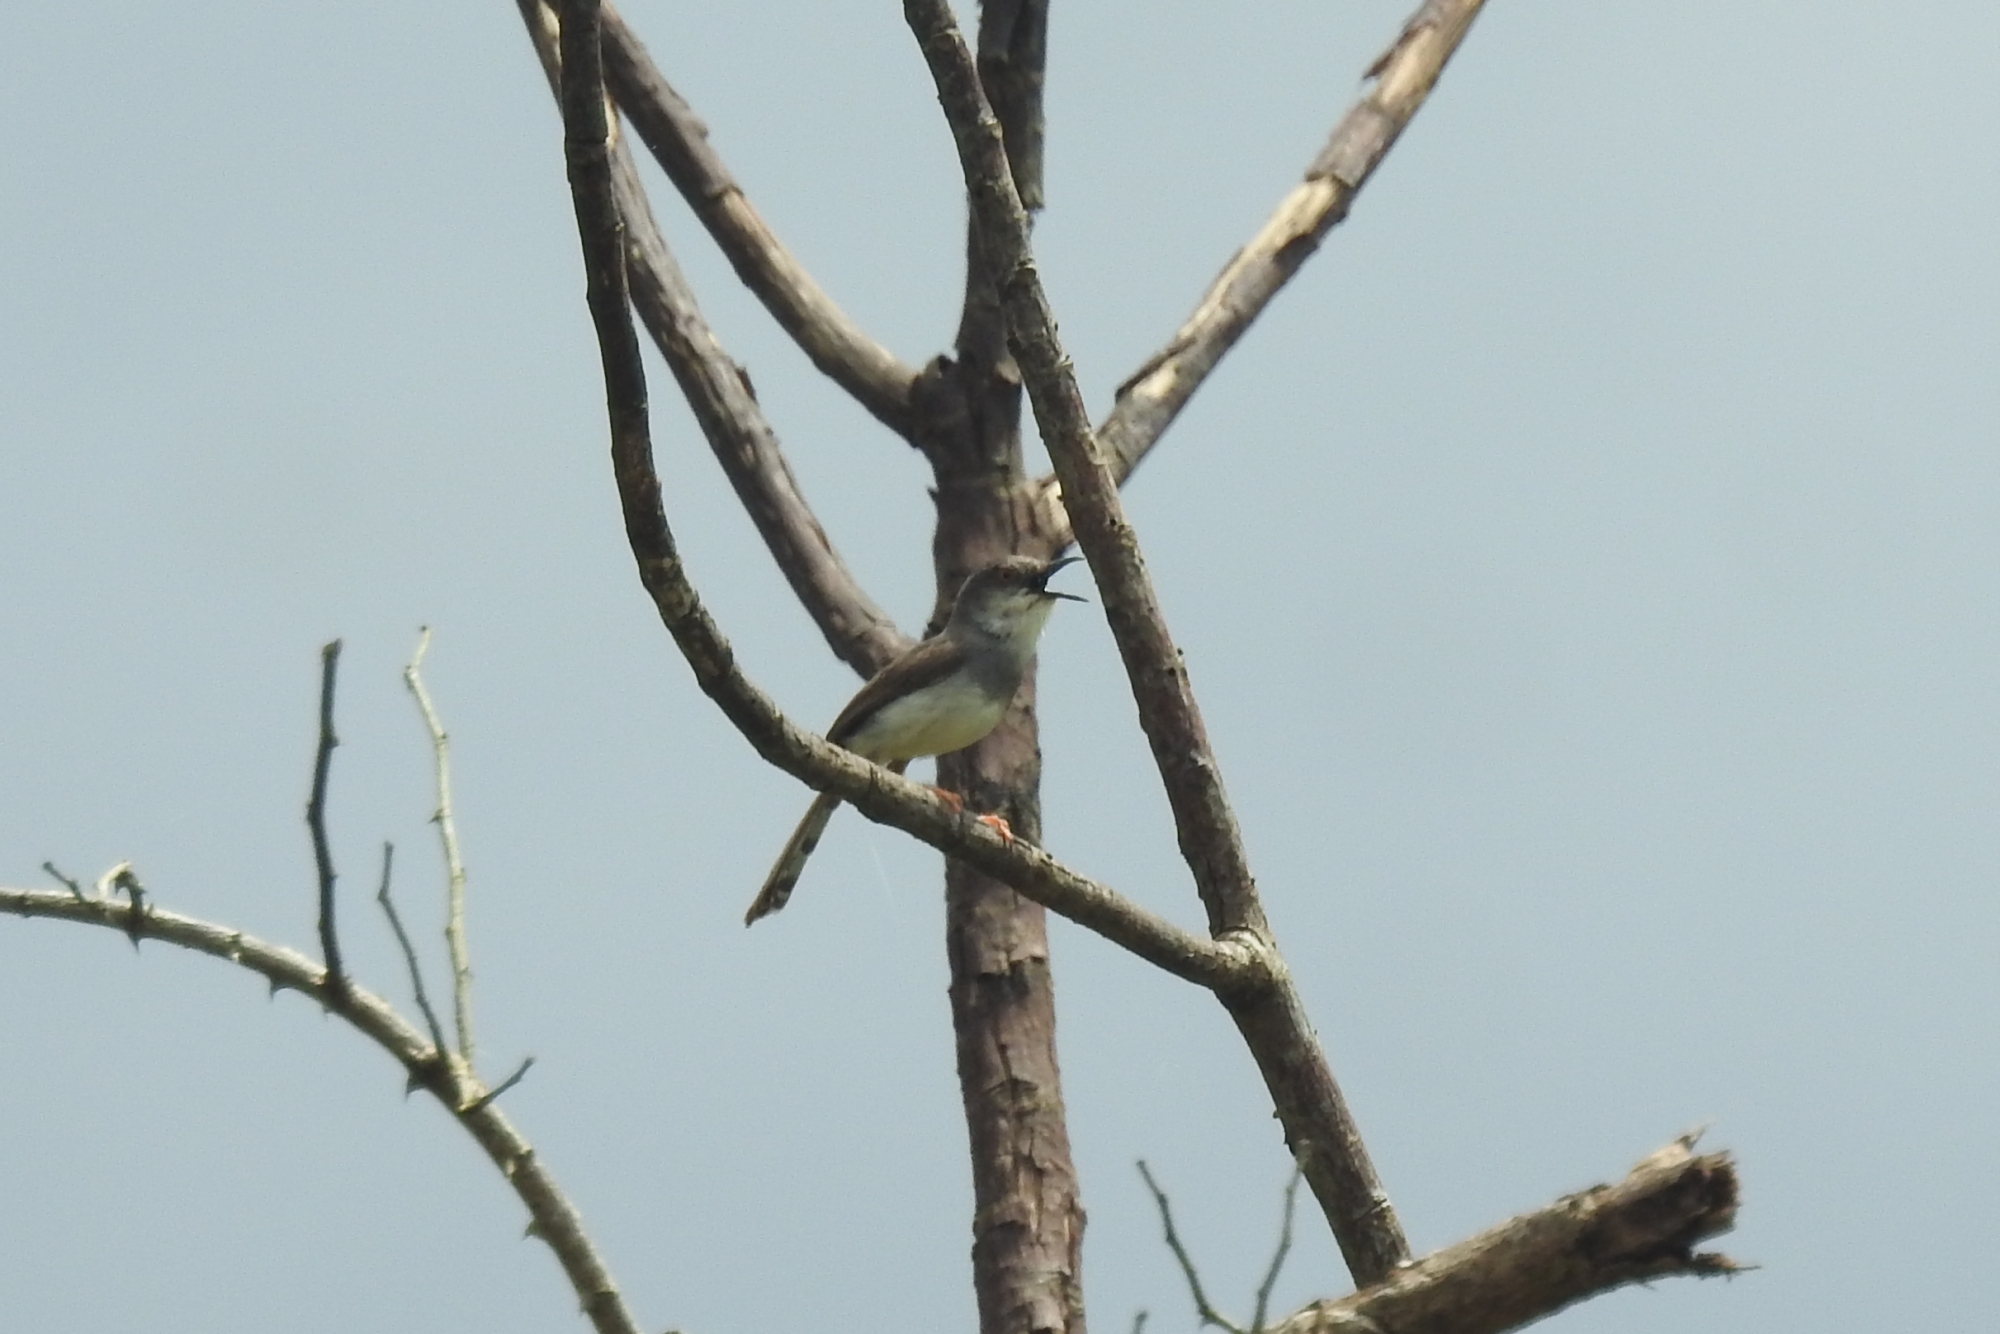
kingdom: Animalia
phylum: Chordata
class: Aves
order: Passeriformes
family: Cisticolidae
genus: Prinia
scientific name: Prinia hodgsonii
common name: Grey-breasted prinia
